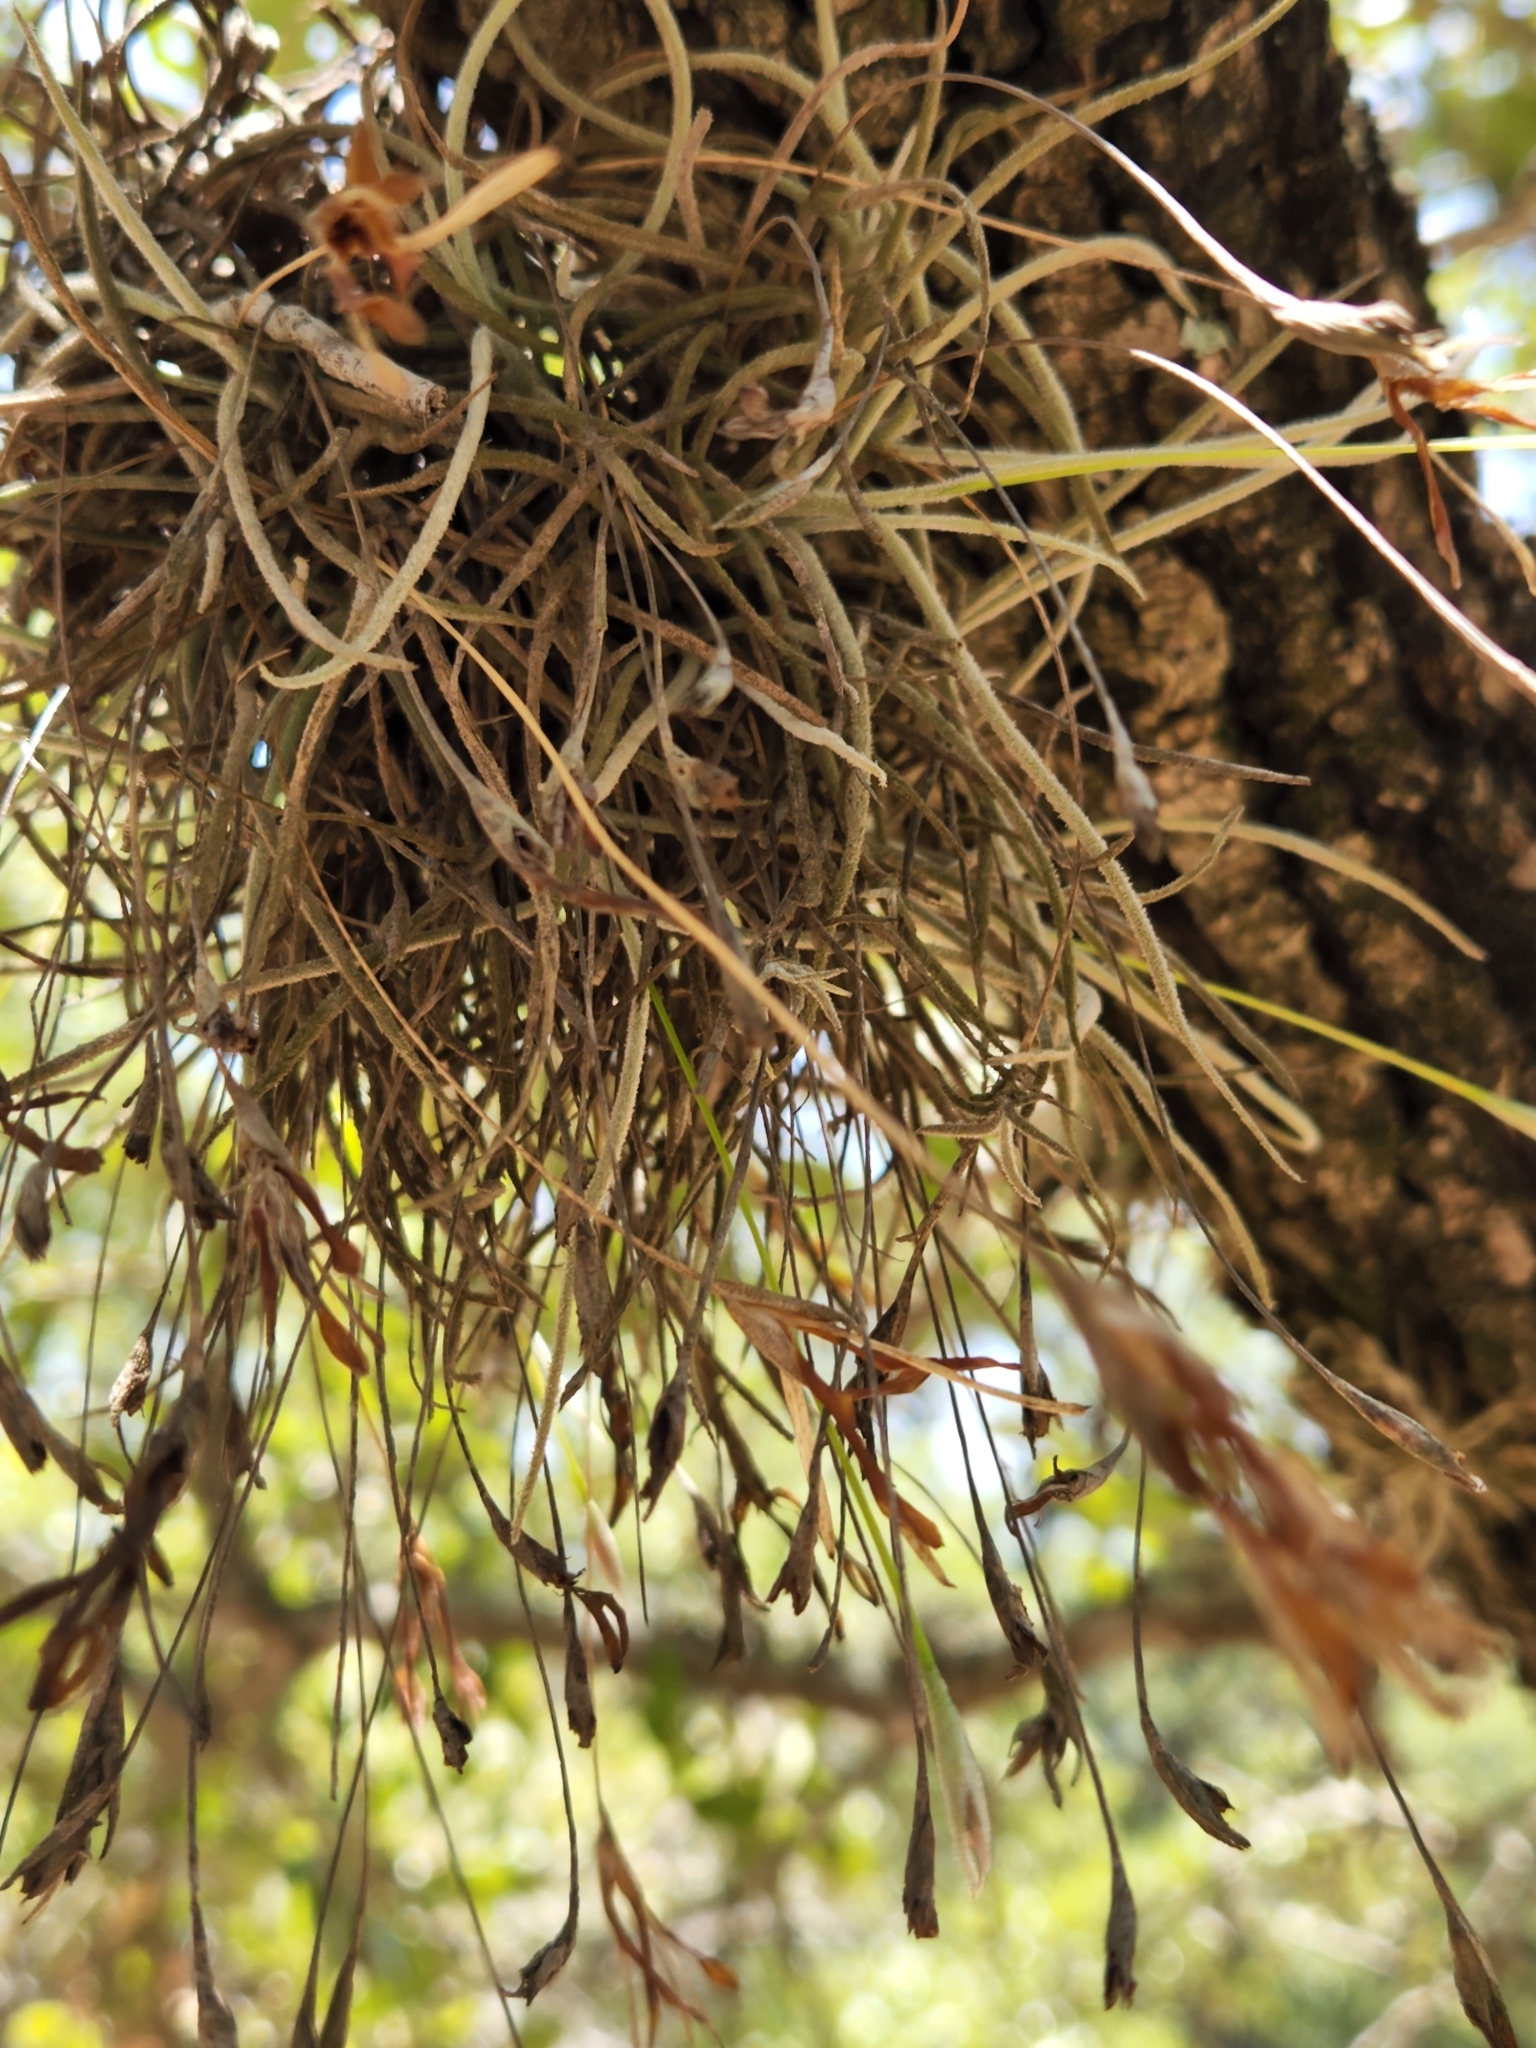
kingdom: Plantae
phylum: Tracheophyta
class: Liliopsida
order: Poales
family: Bromeliaceae
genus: Tillandsia
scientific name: Tillandsia recurvata
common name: Small ballmoss
